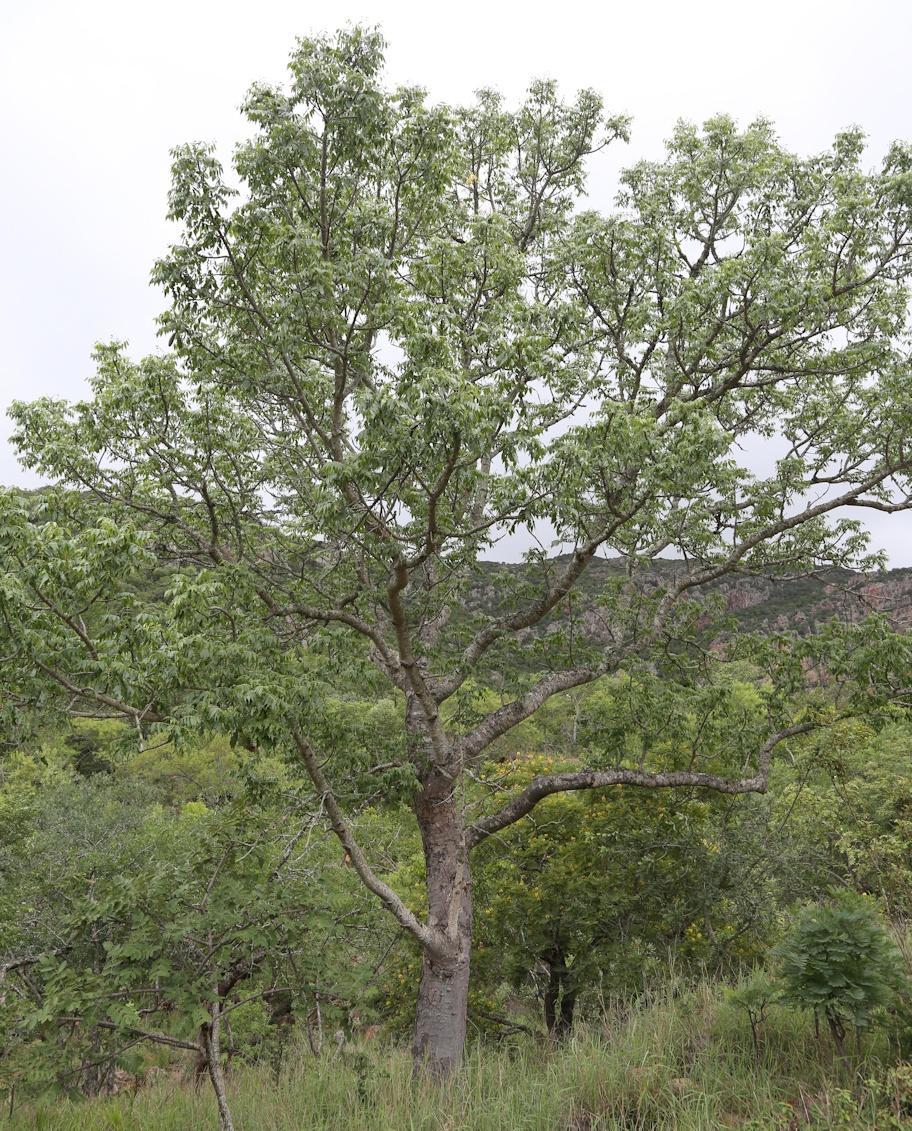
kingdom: Plantae
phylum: Tracheophyta
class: Magnoliopsida
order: Sapindales
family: Meliaceae
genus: Entandrophragma
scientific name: Entandrophragma caudatum
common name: Mountain-mahogany
